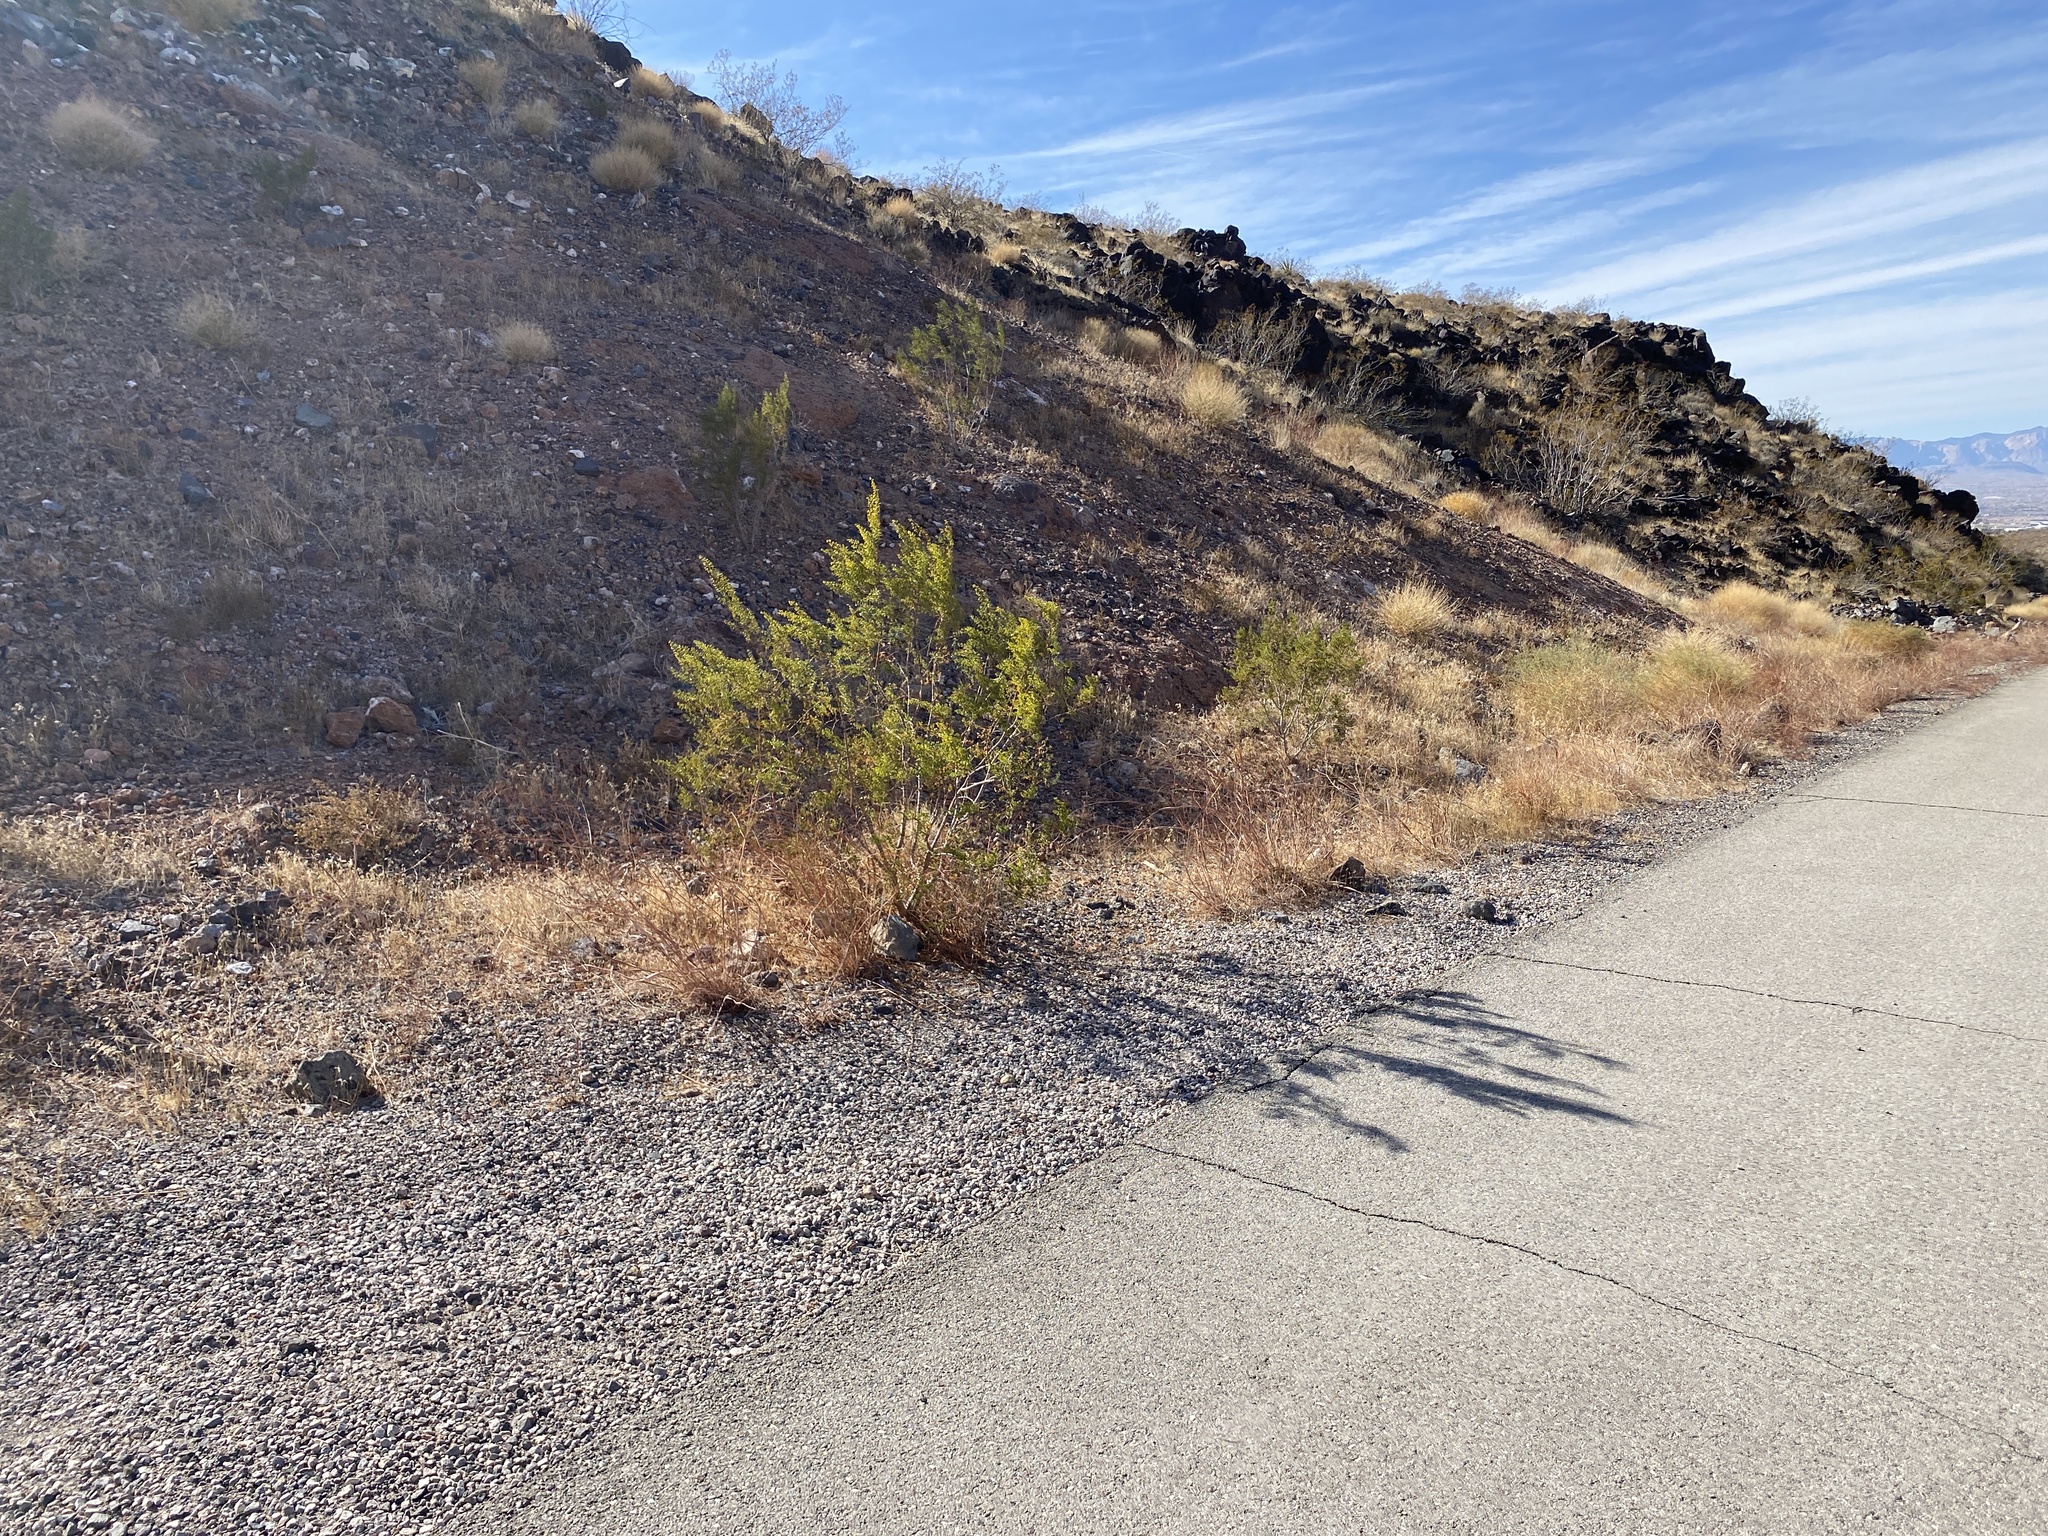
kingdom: Plantae
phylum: Tracheophyta
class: Magnoliopsida
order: Zygophyllales
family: Zygophyllaceae
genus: Larrea
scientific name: Larrea tridentata
